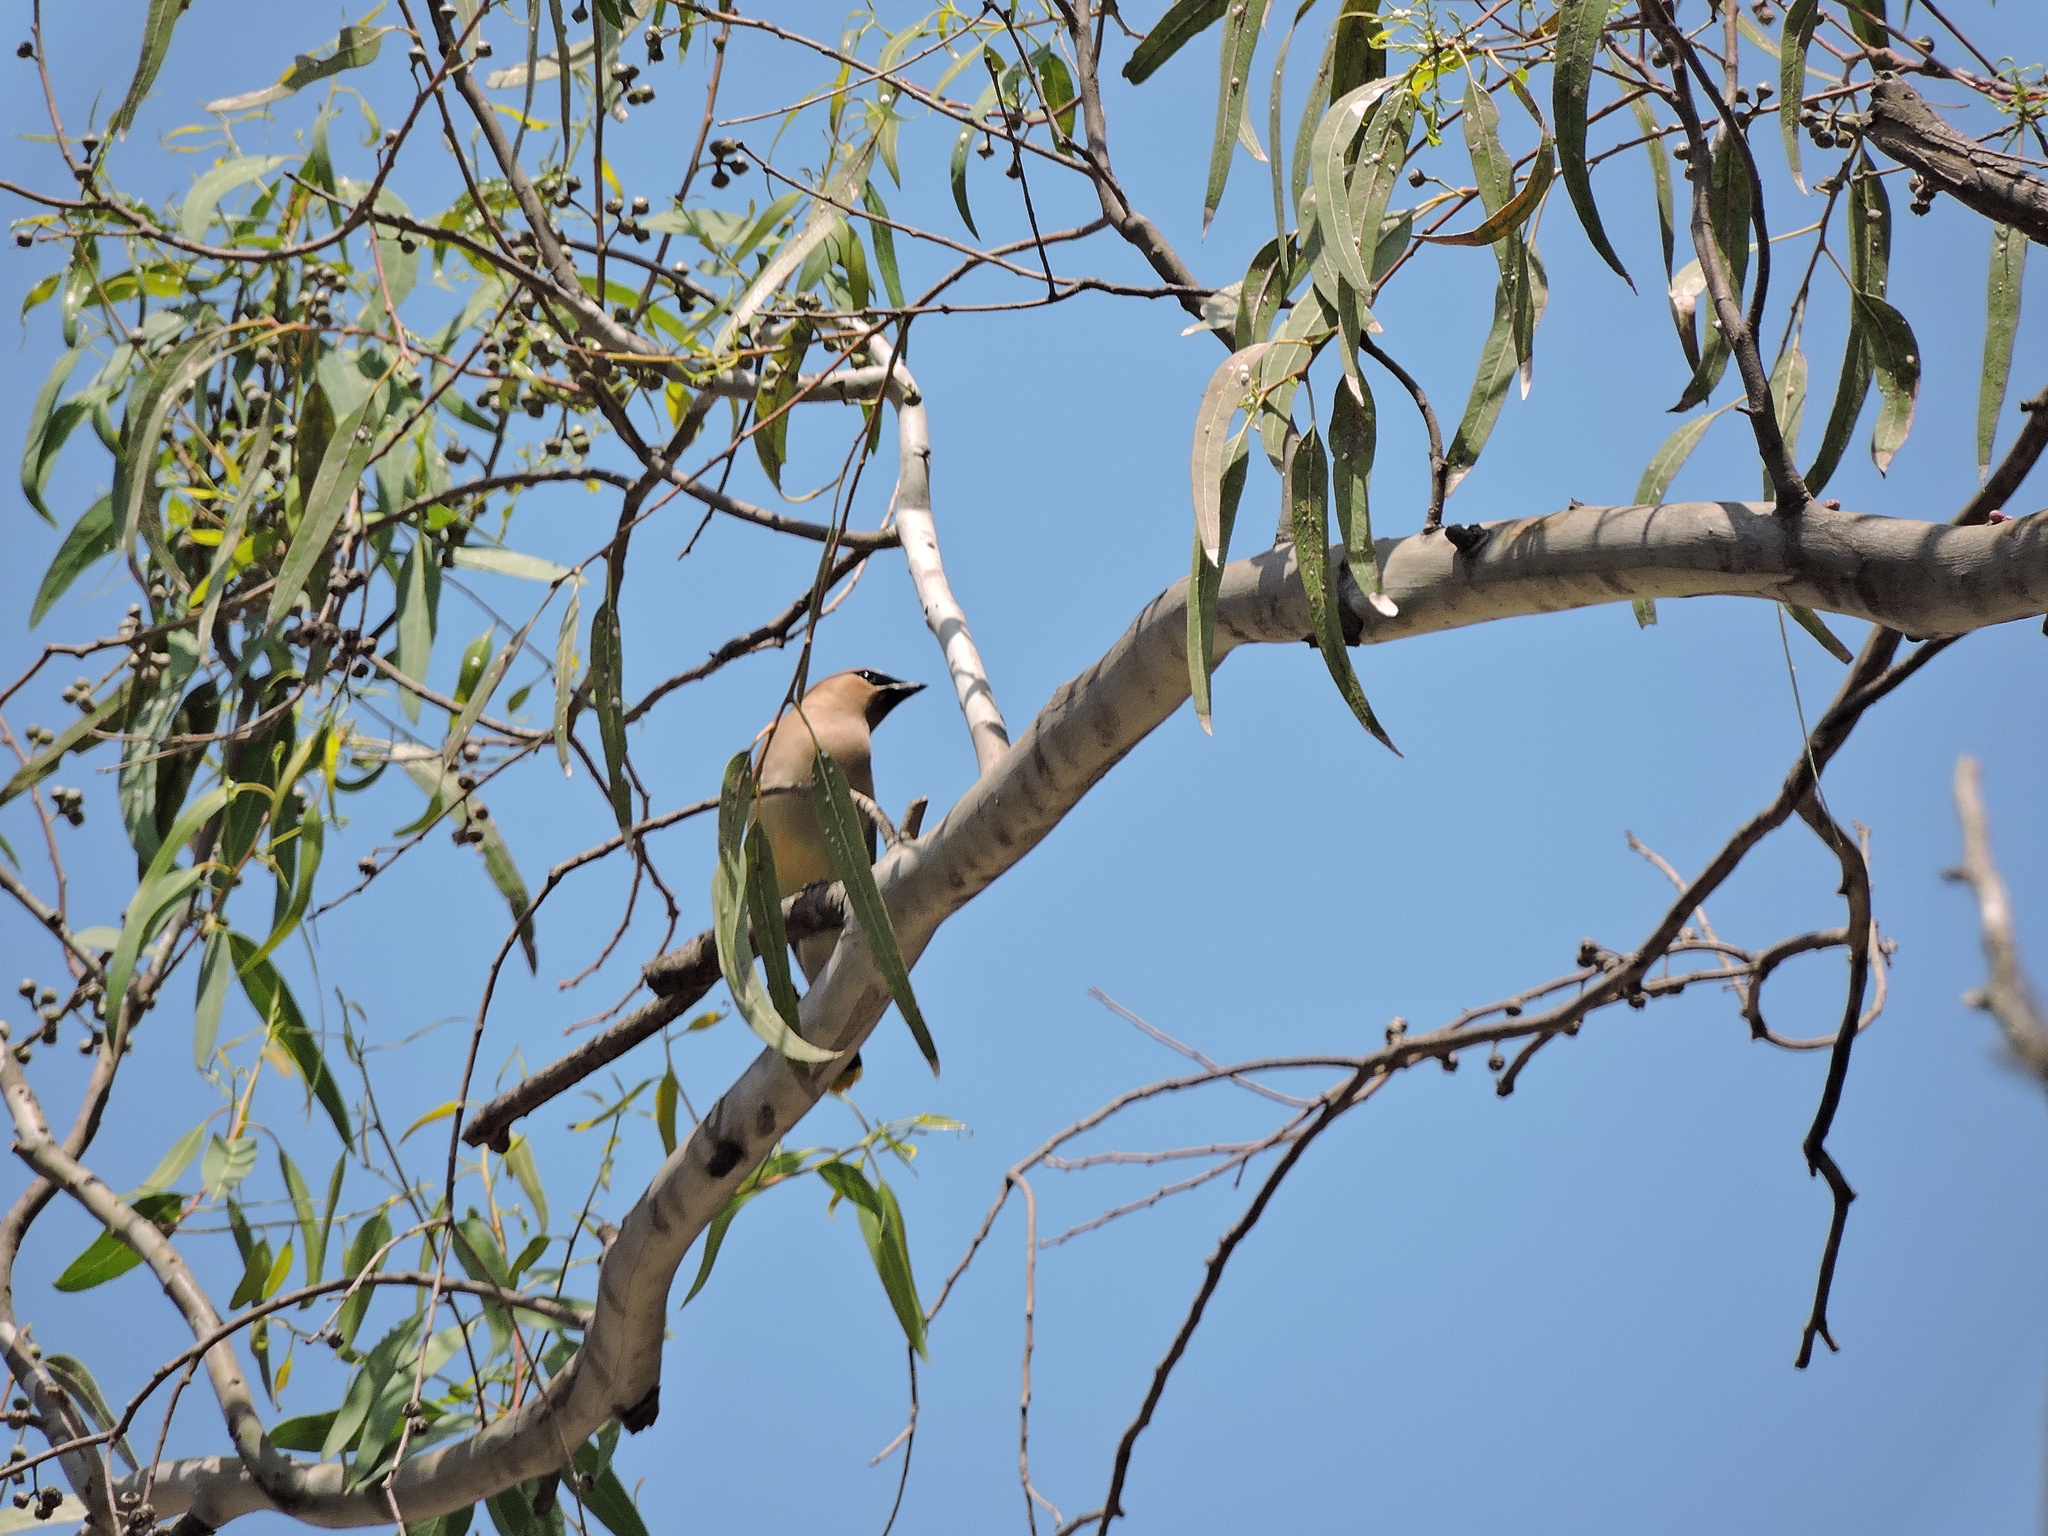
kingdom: Animalia
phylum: Chordata
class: Aves
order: Passeriformes
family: Bombycillidae
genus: Bombycilla
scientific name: Bombycilla cedrorum
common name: Cedar waxwing
